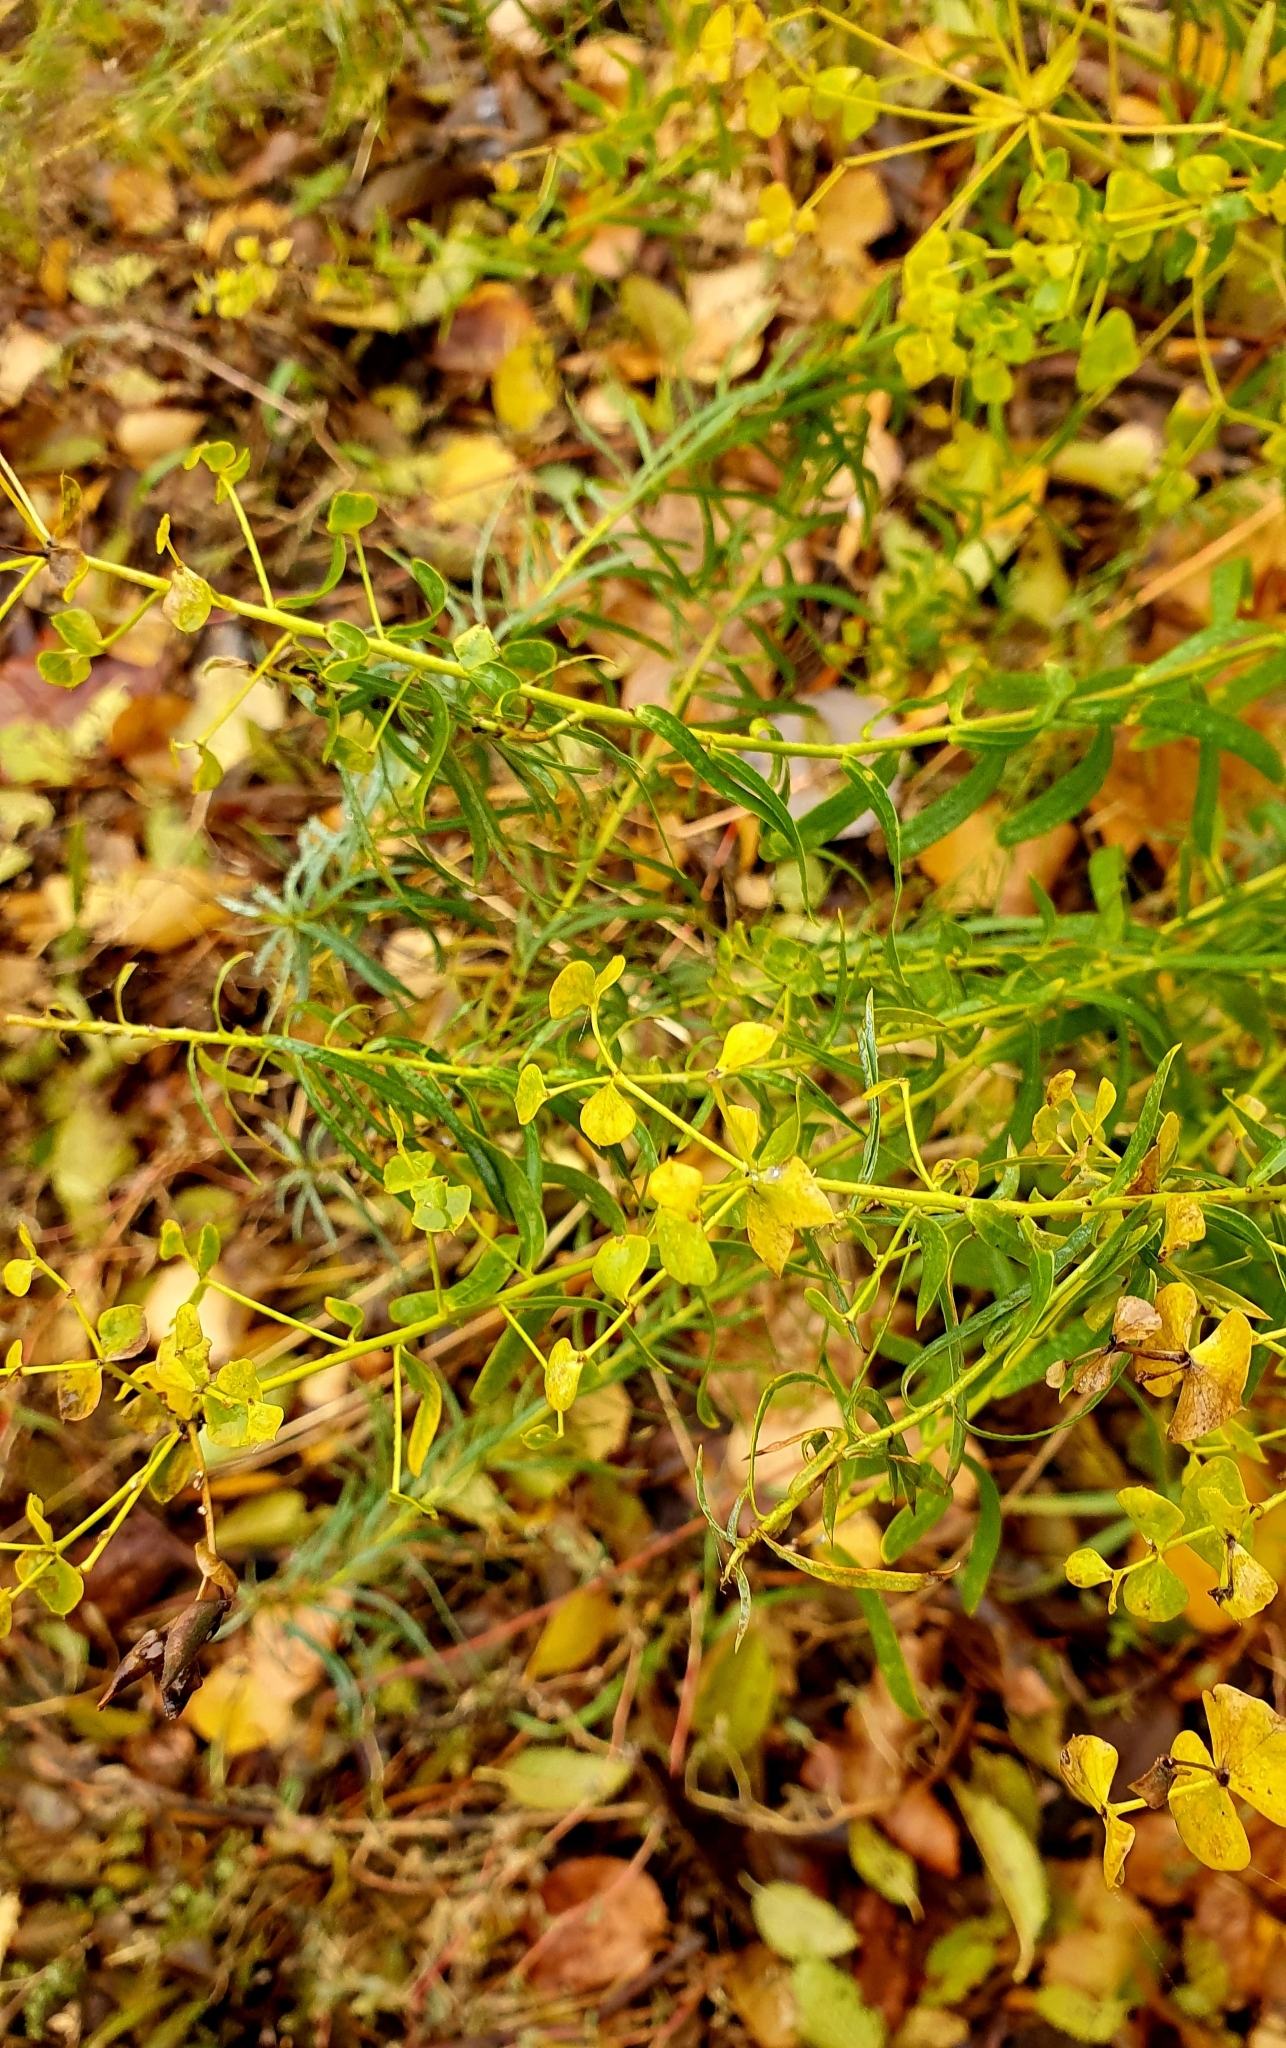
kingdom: Plantae
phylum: Tracheophyta
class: Magnoliopsida
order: Malpighiales
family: Euphorbiaceae
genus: Euphorbia
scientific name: Euphorbia virgata
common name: Leafy spurge
